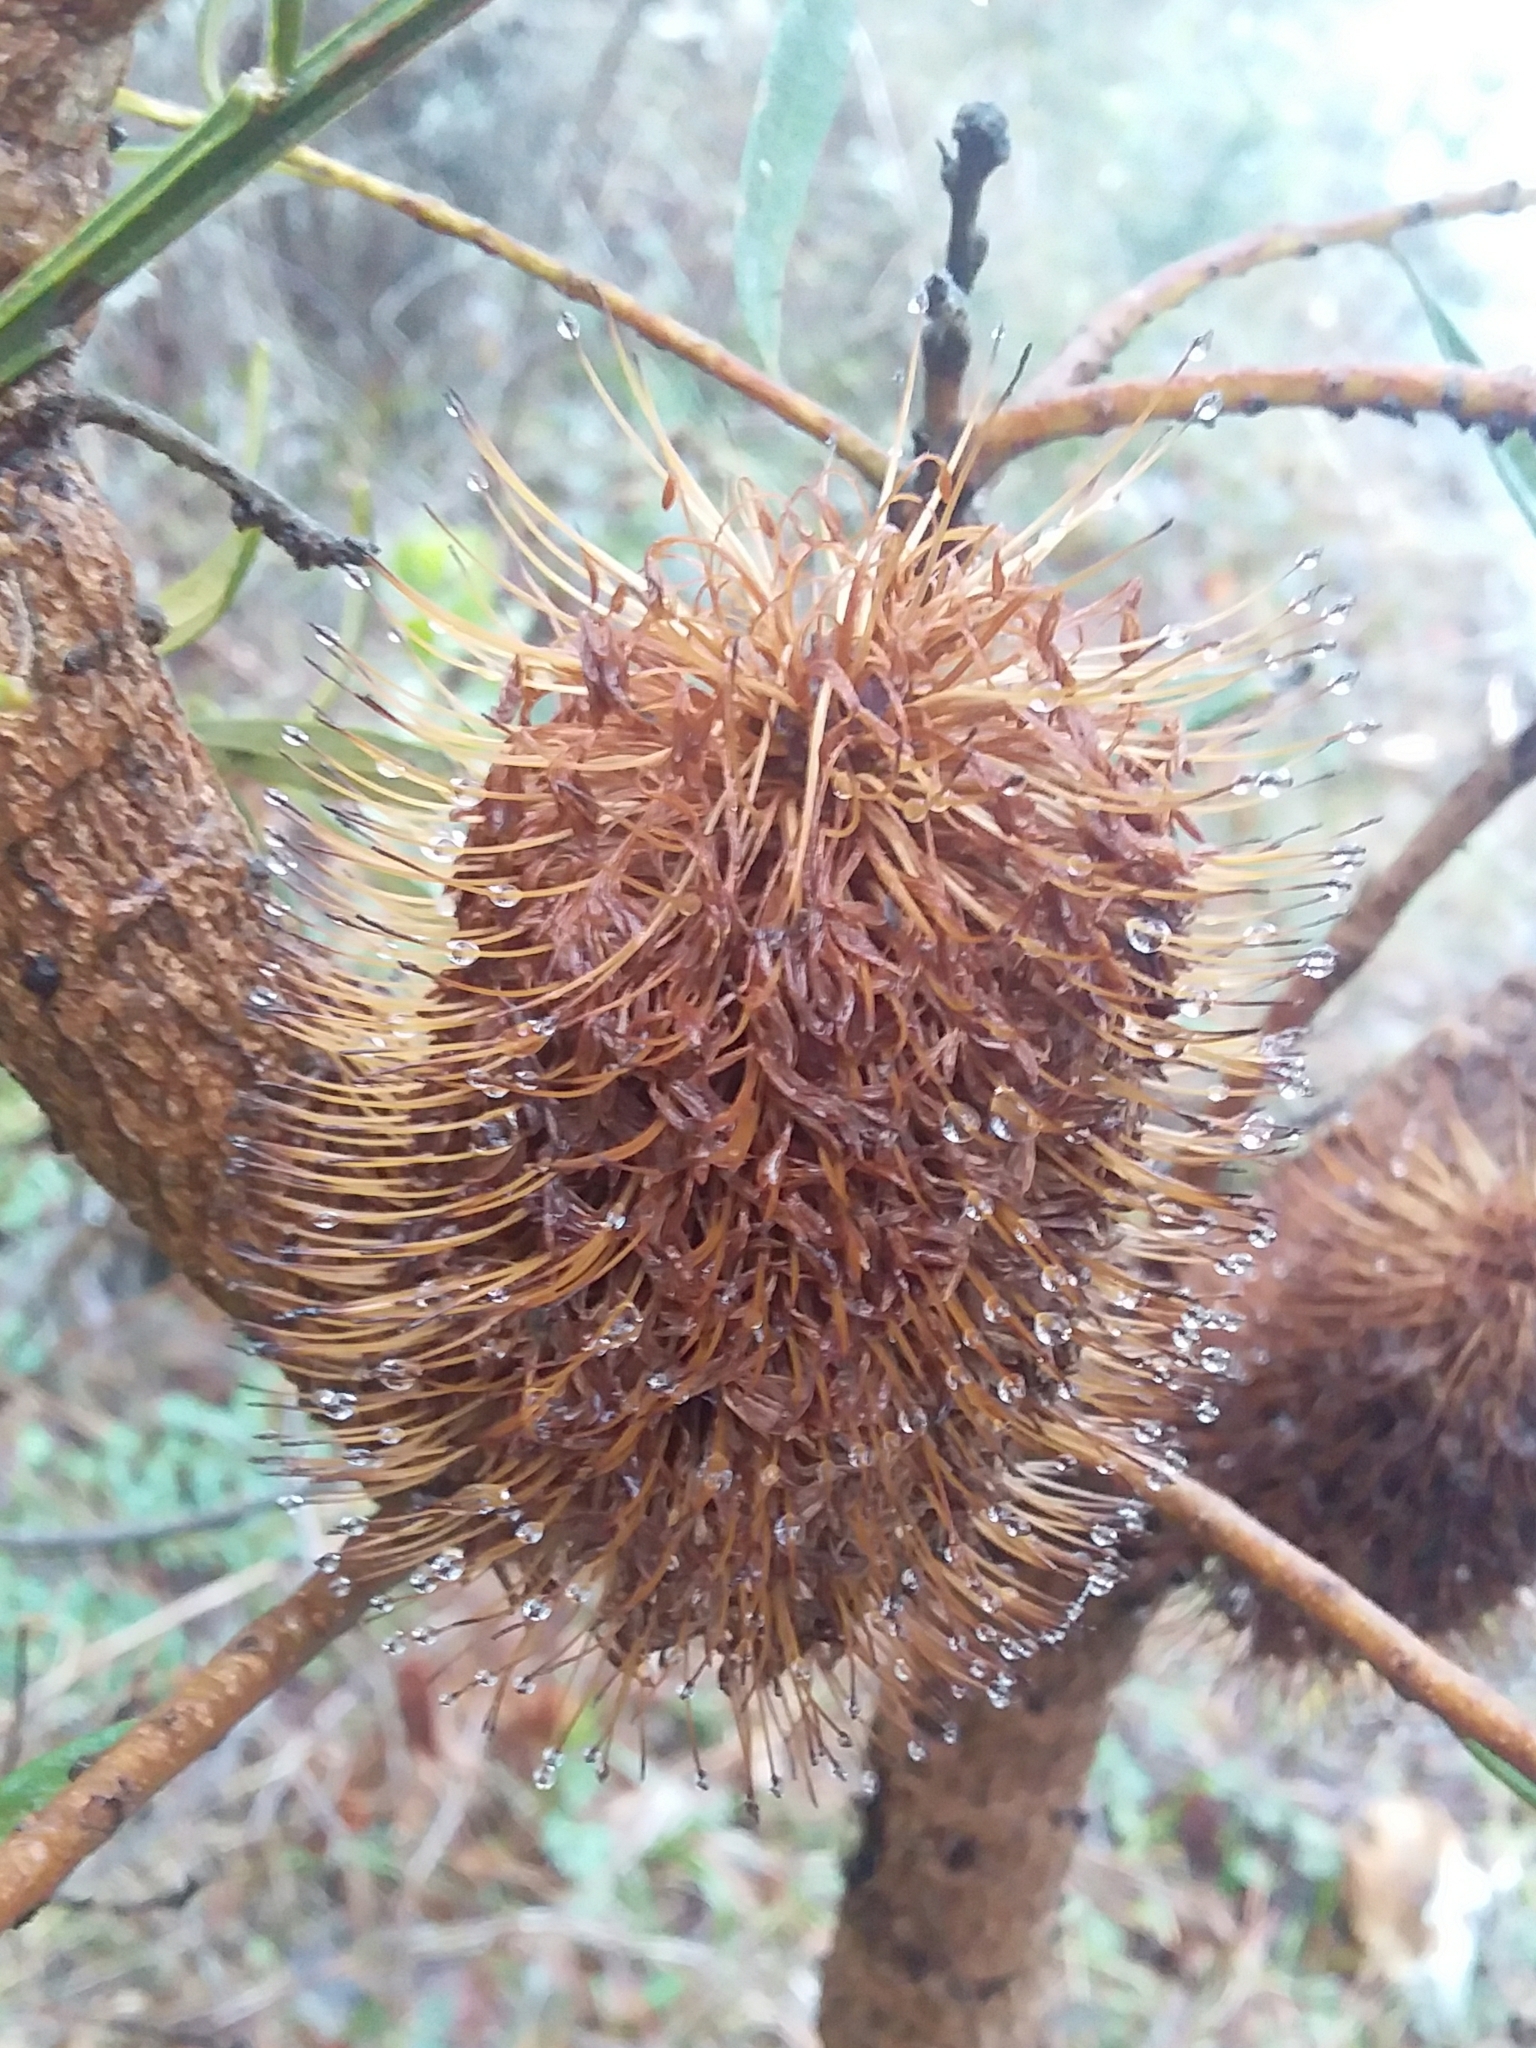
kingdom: Plantae
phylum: Tracheophyta
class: Magnoliopsida
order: Proteales
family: Proteaceae
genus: Banksia
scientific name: Banksia marginata
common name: Silver banksia
